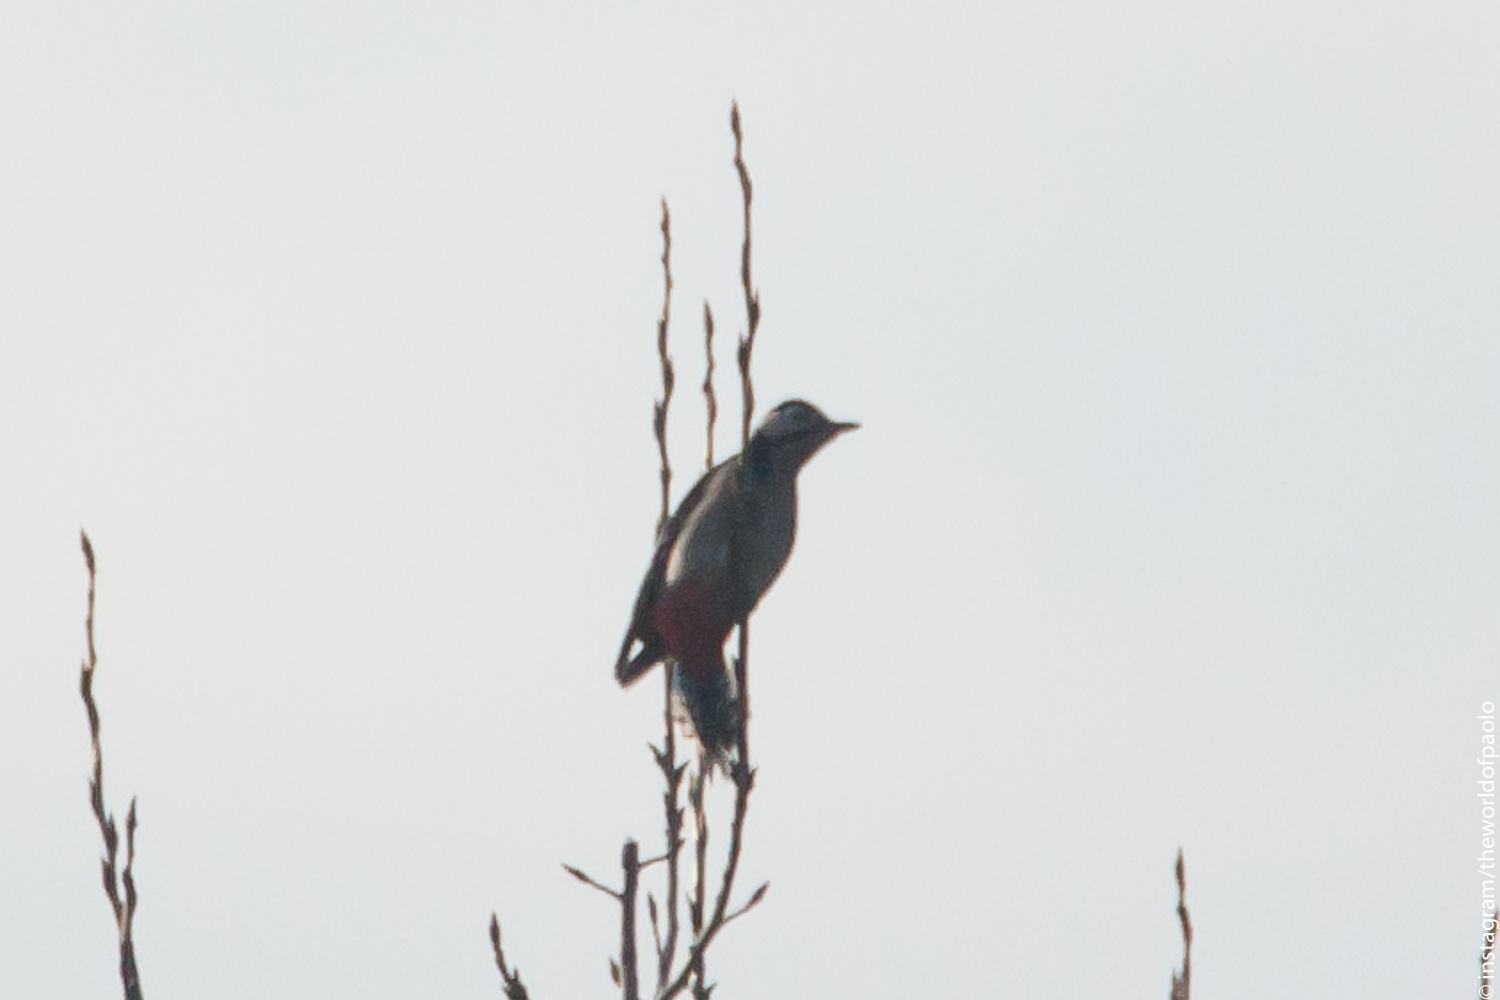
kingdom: Animalia
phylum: Chordata
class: Aves
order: Piciformes
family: Picidae
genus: Dendrocopos
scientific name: Dendrocopos major
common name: Great spotted woodpecker
